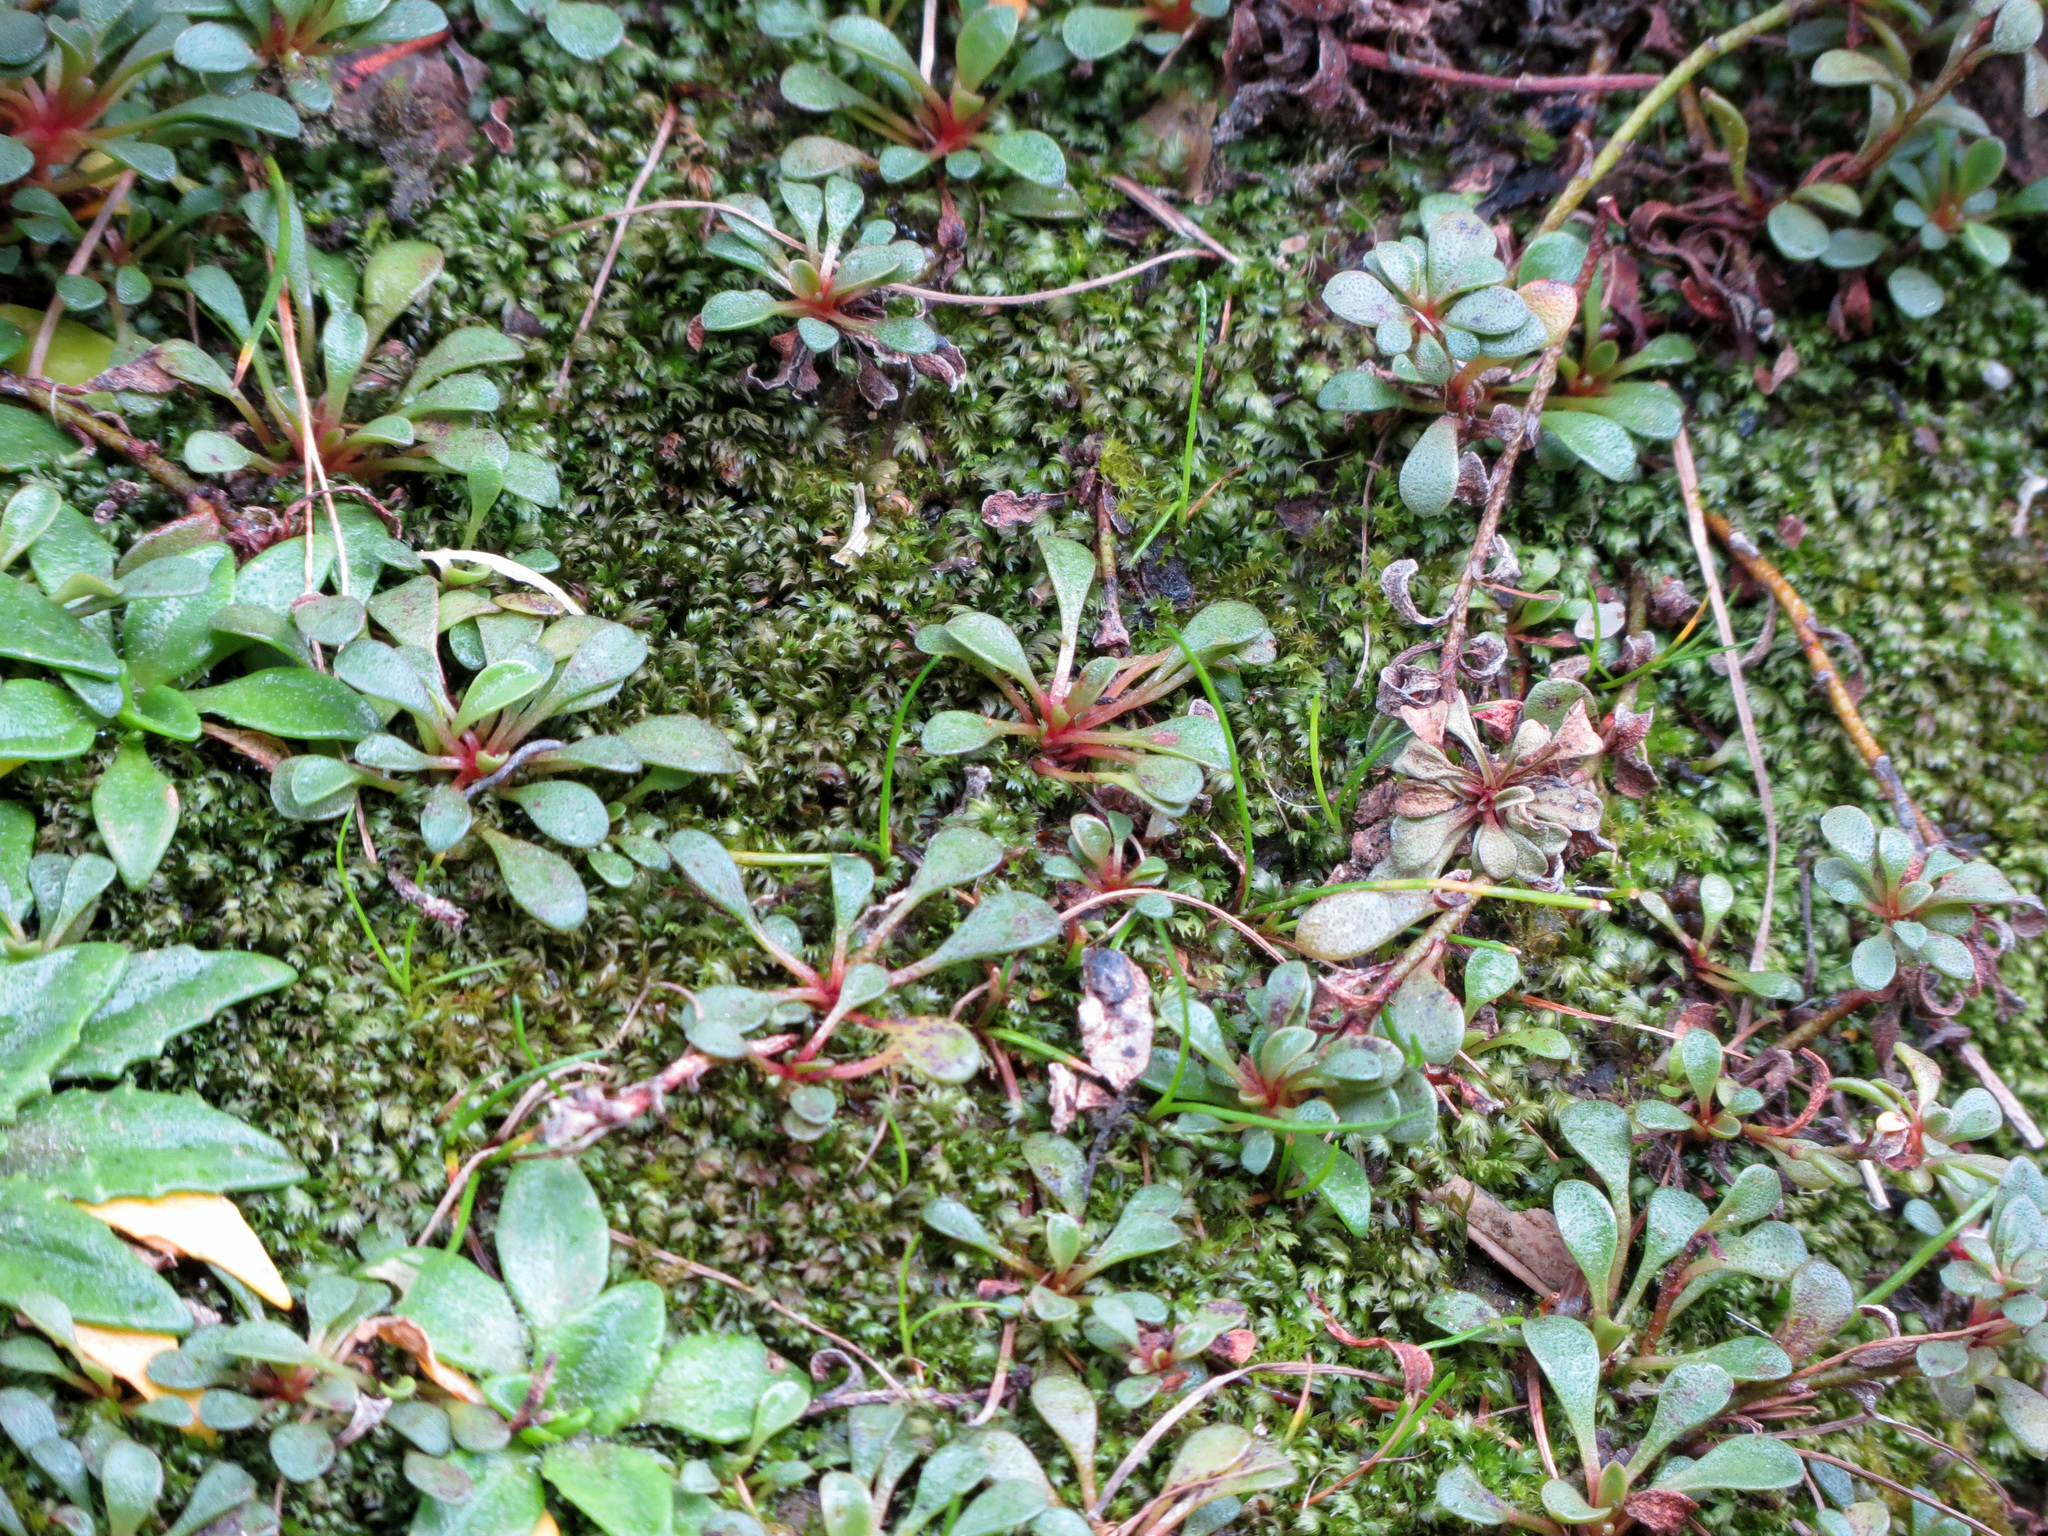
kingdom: Plantae
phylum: Tracheophyta
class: Magnoliopsida
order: Ericales
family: Primulaceae
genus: Samolus
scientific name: Samolus repens
